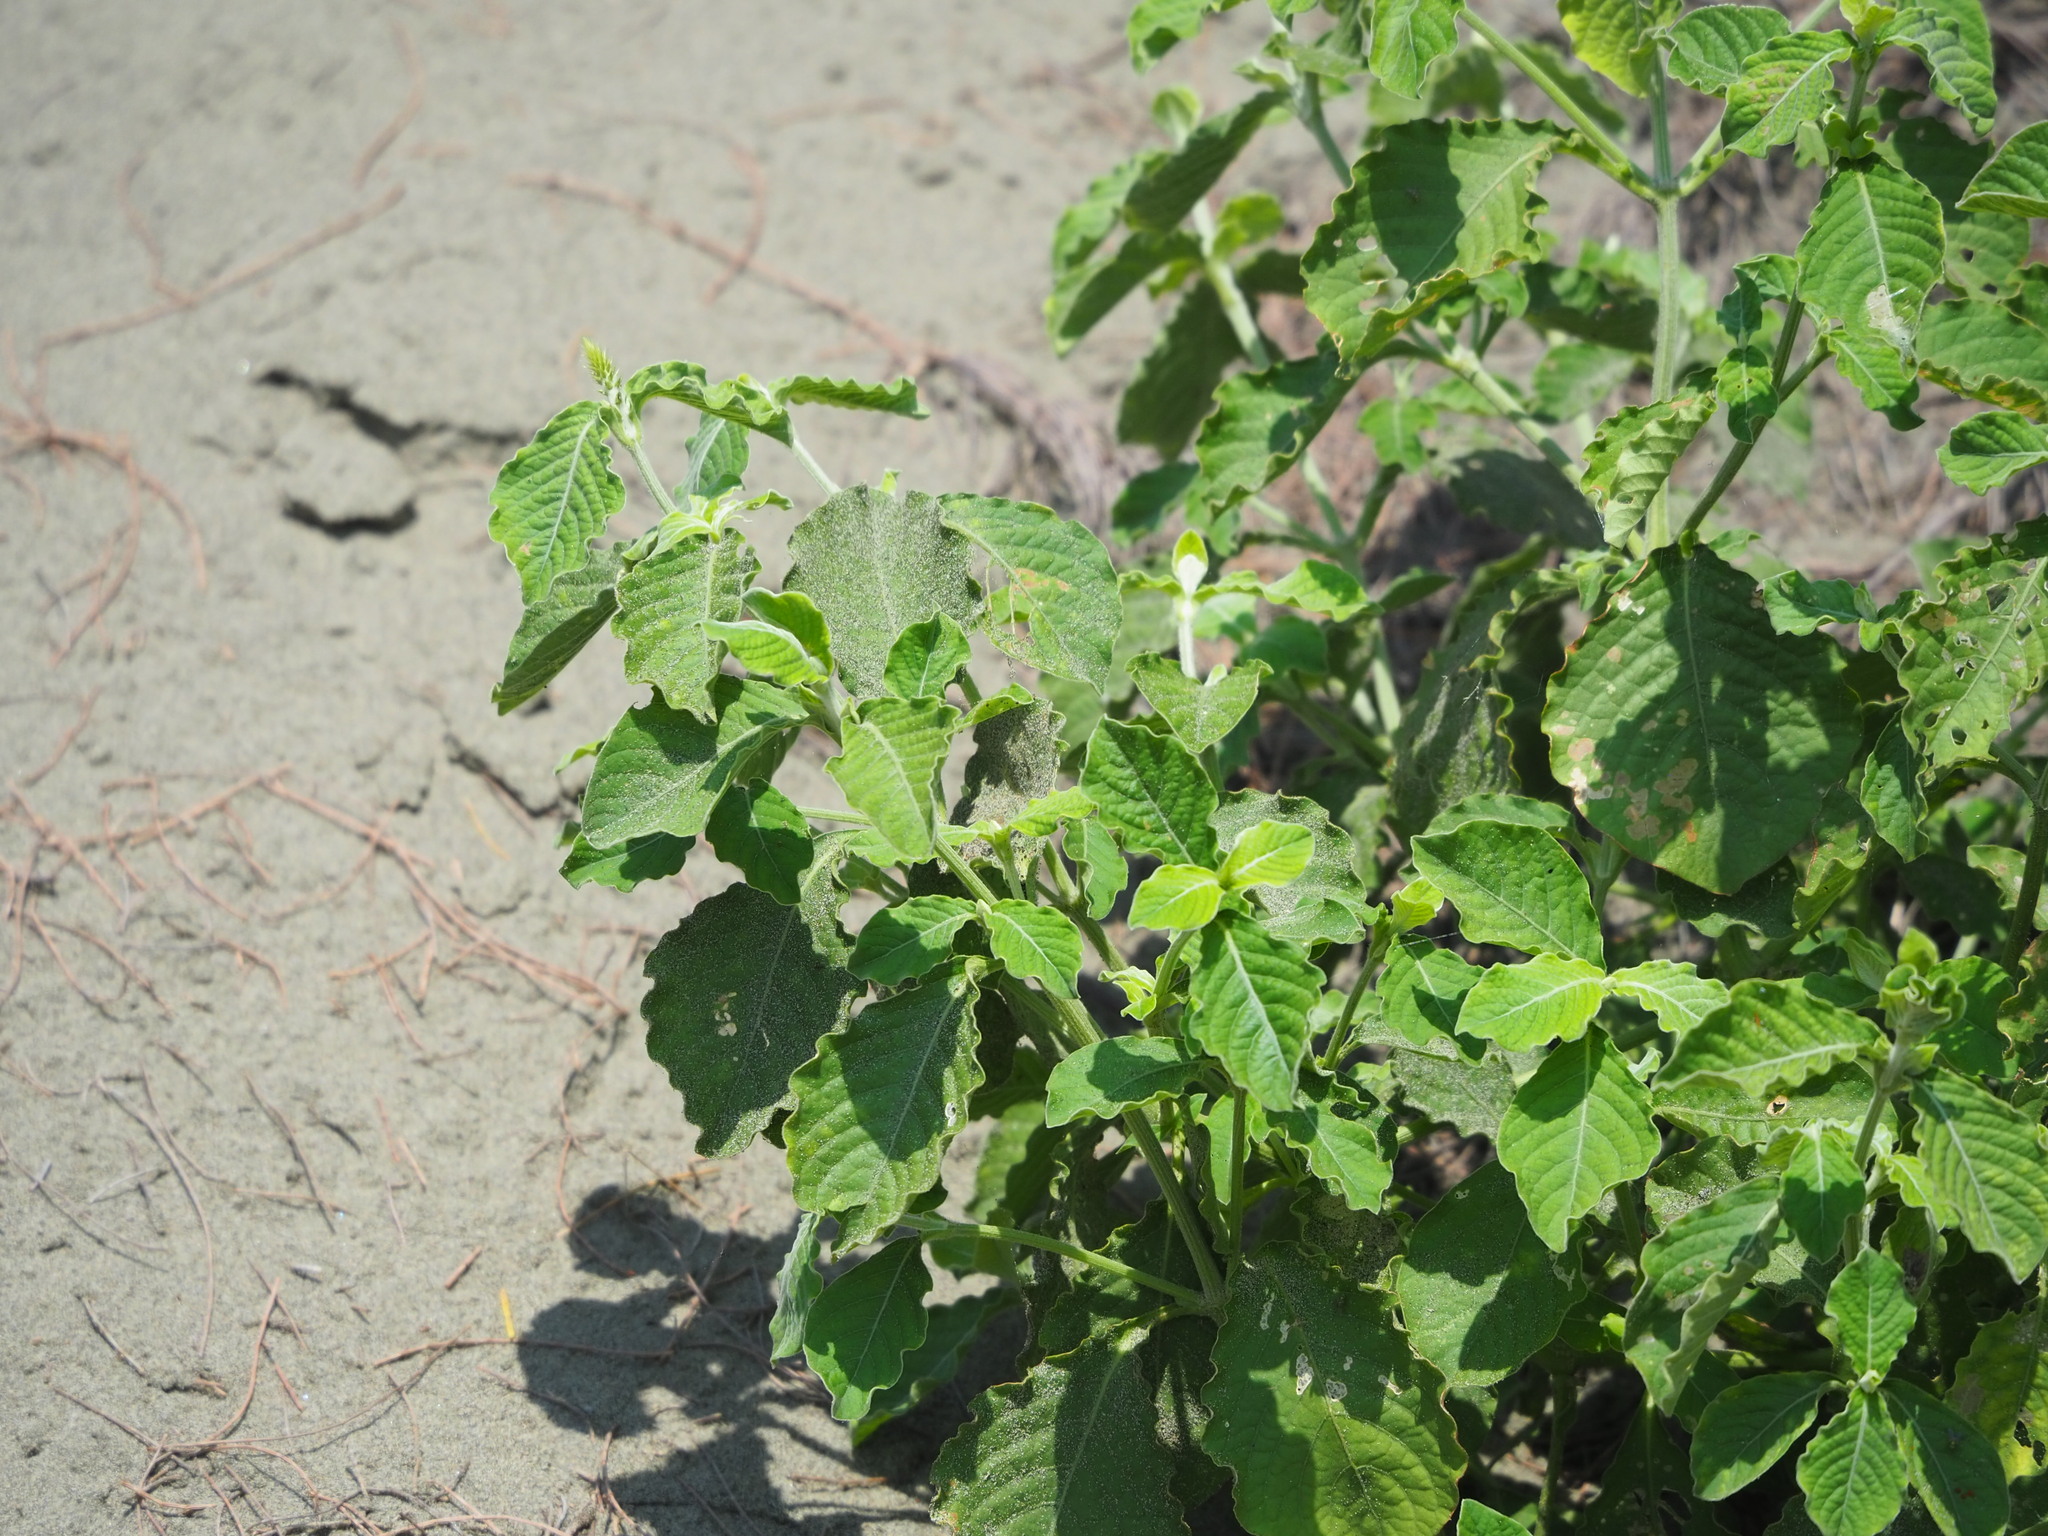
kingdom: Plantae
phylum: Tracheophyta
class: Magnoliopsida
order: Caryophyllales
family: Amaranthaceae
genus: Achyranthes
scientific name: Achyranthes aspera
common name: Devil's horsewhip
